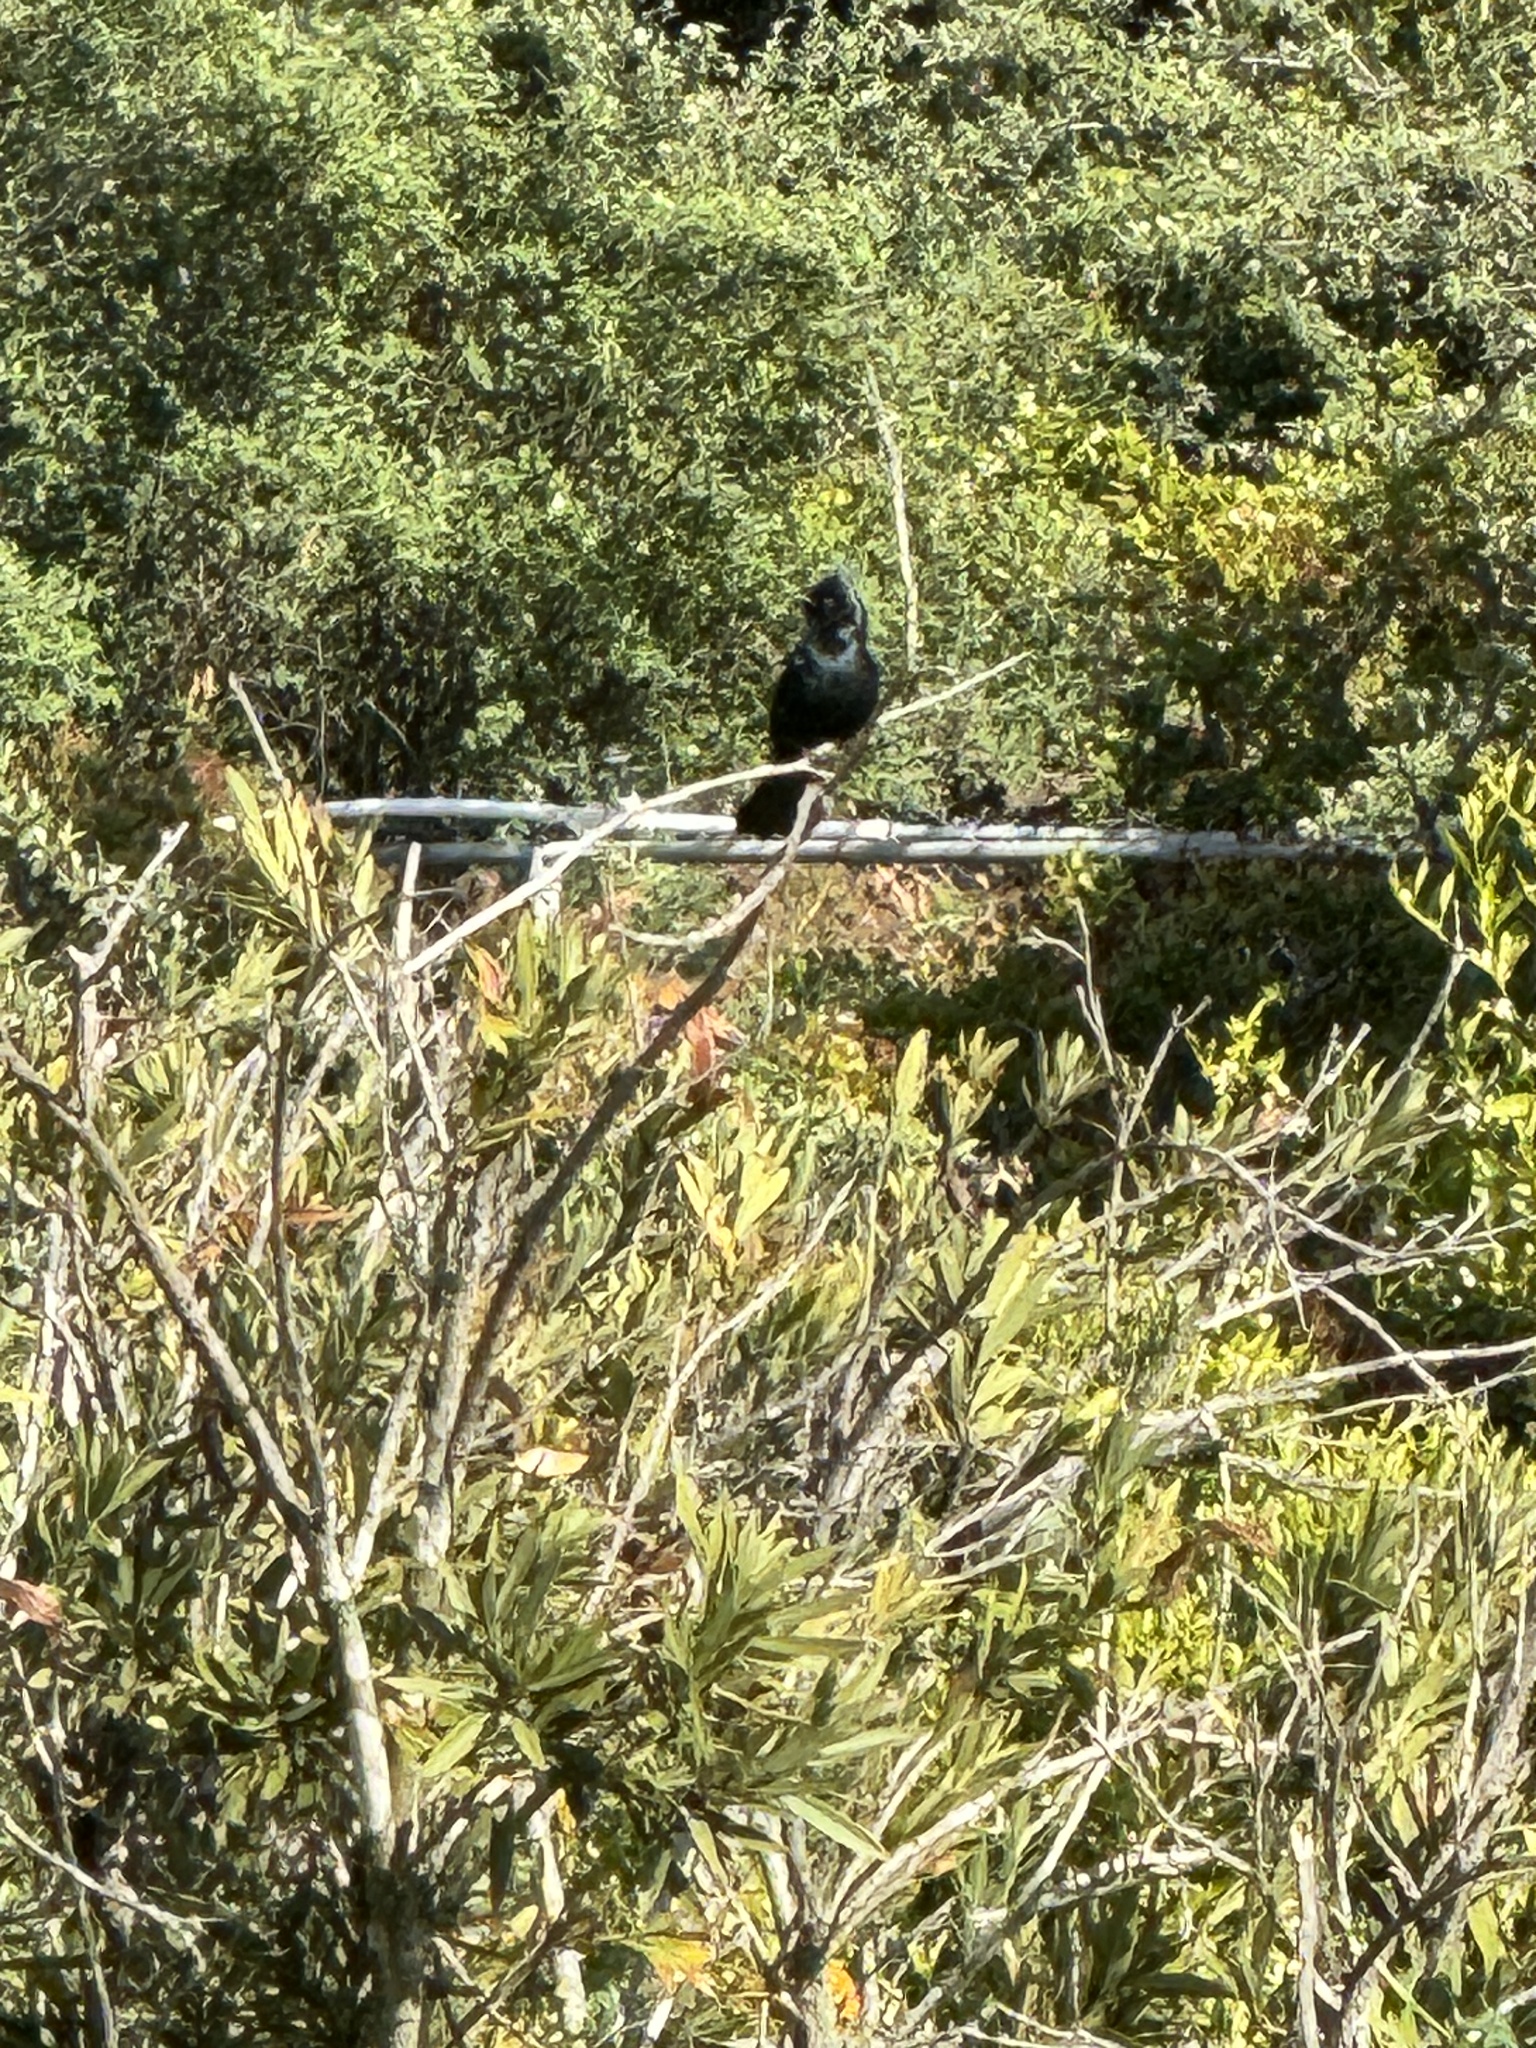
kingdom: Animalia
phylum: Chordata
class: Aves
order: Passeriformes
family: Ptilogonatidae
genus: Phainopepla
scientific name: Phainopepla nitens
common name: Phainopepla
